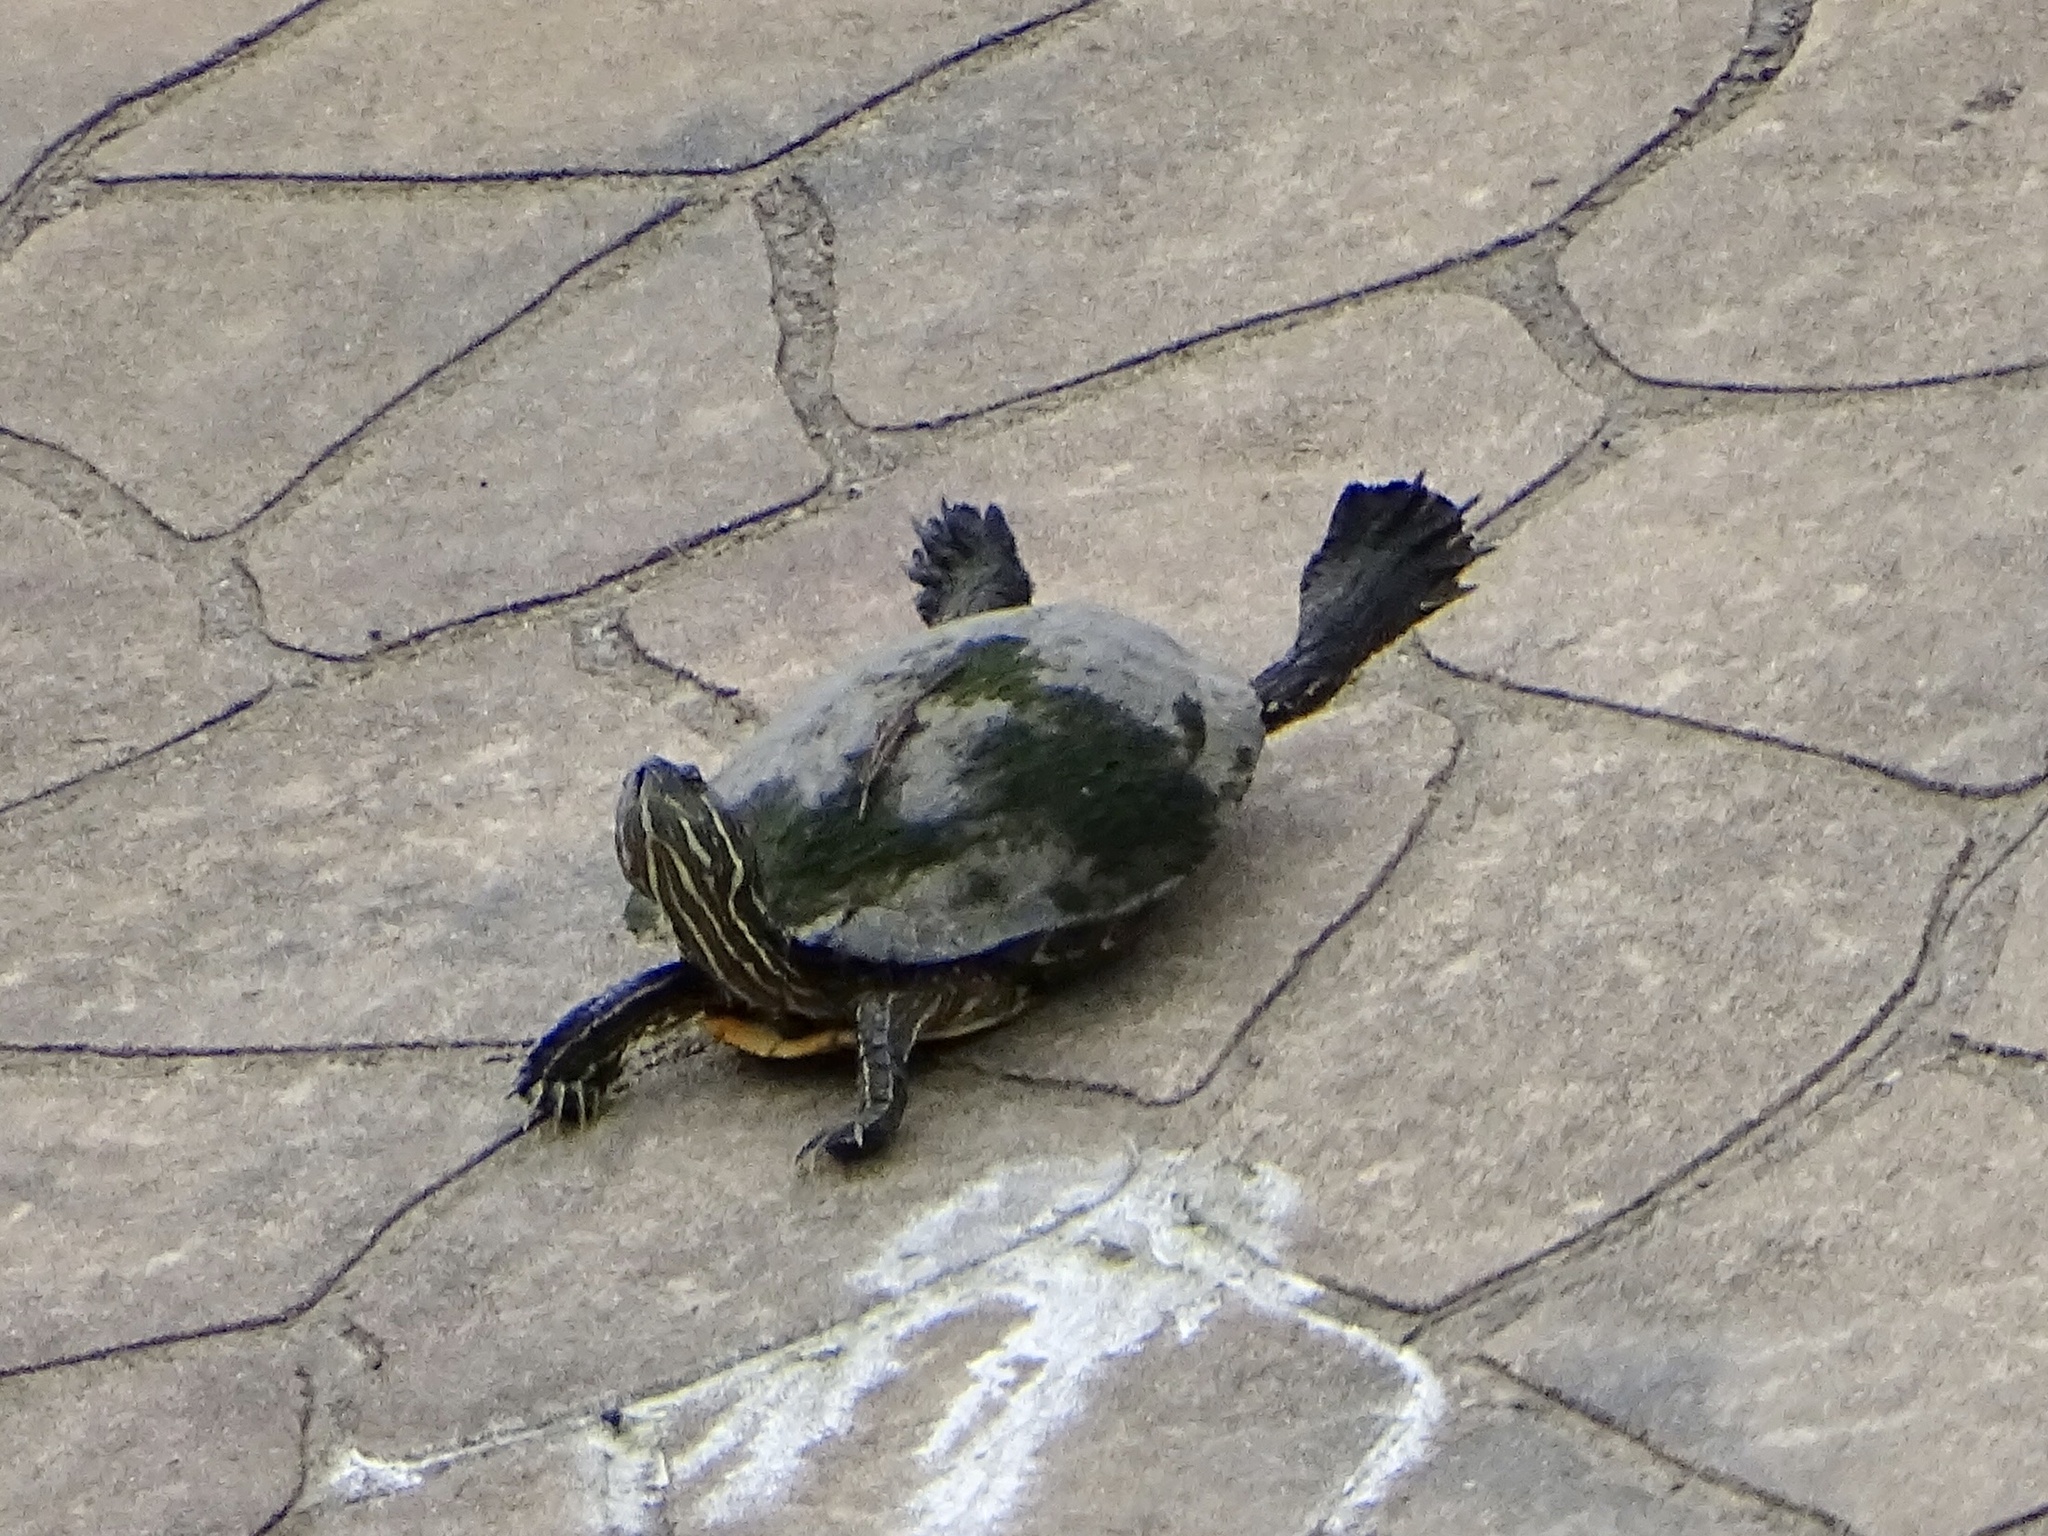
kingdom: Animalia
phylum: Chordata
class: Testudines
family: Emydidae
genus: Pseudemys
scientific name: Pseudemys concinna
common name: Eastern river cooter
